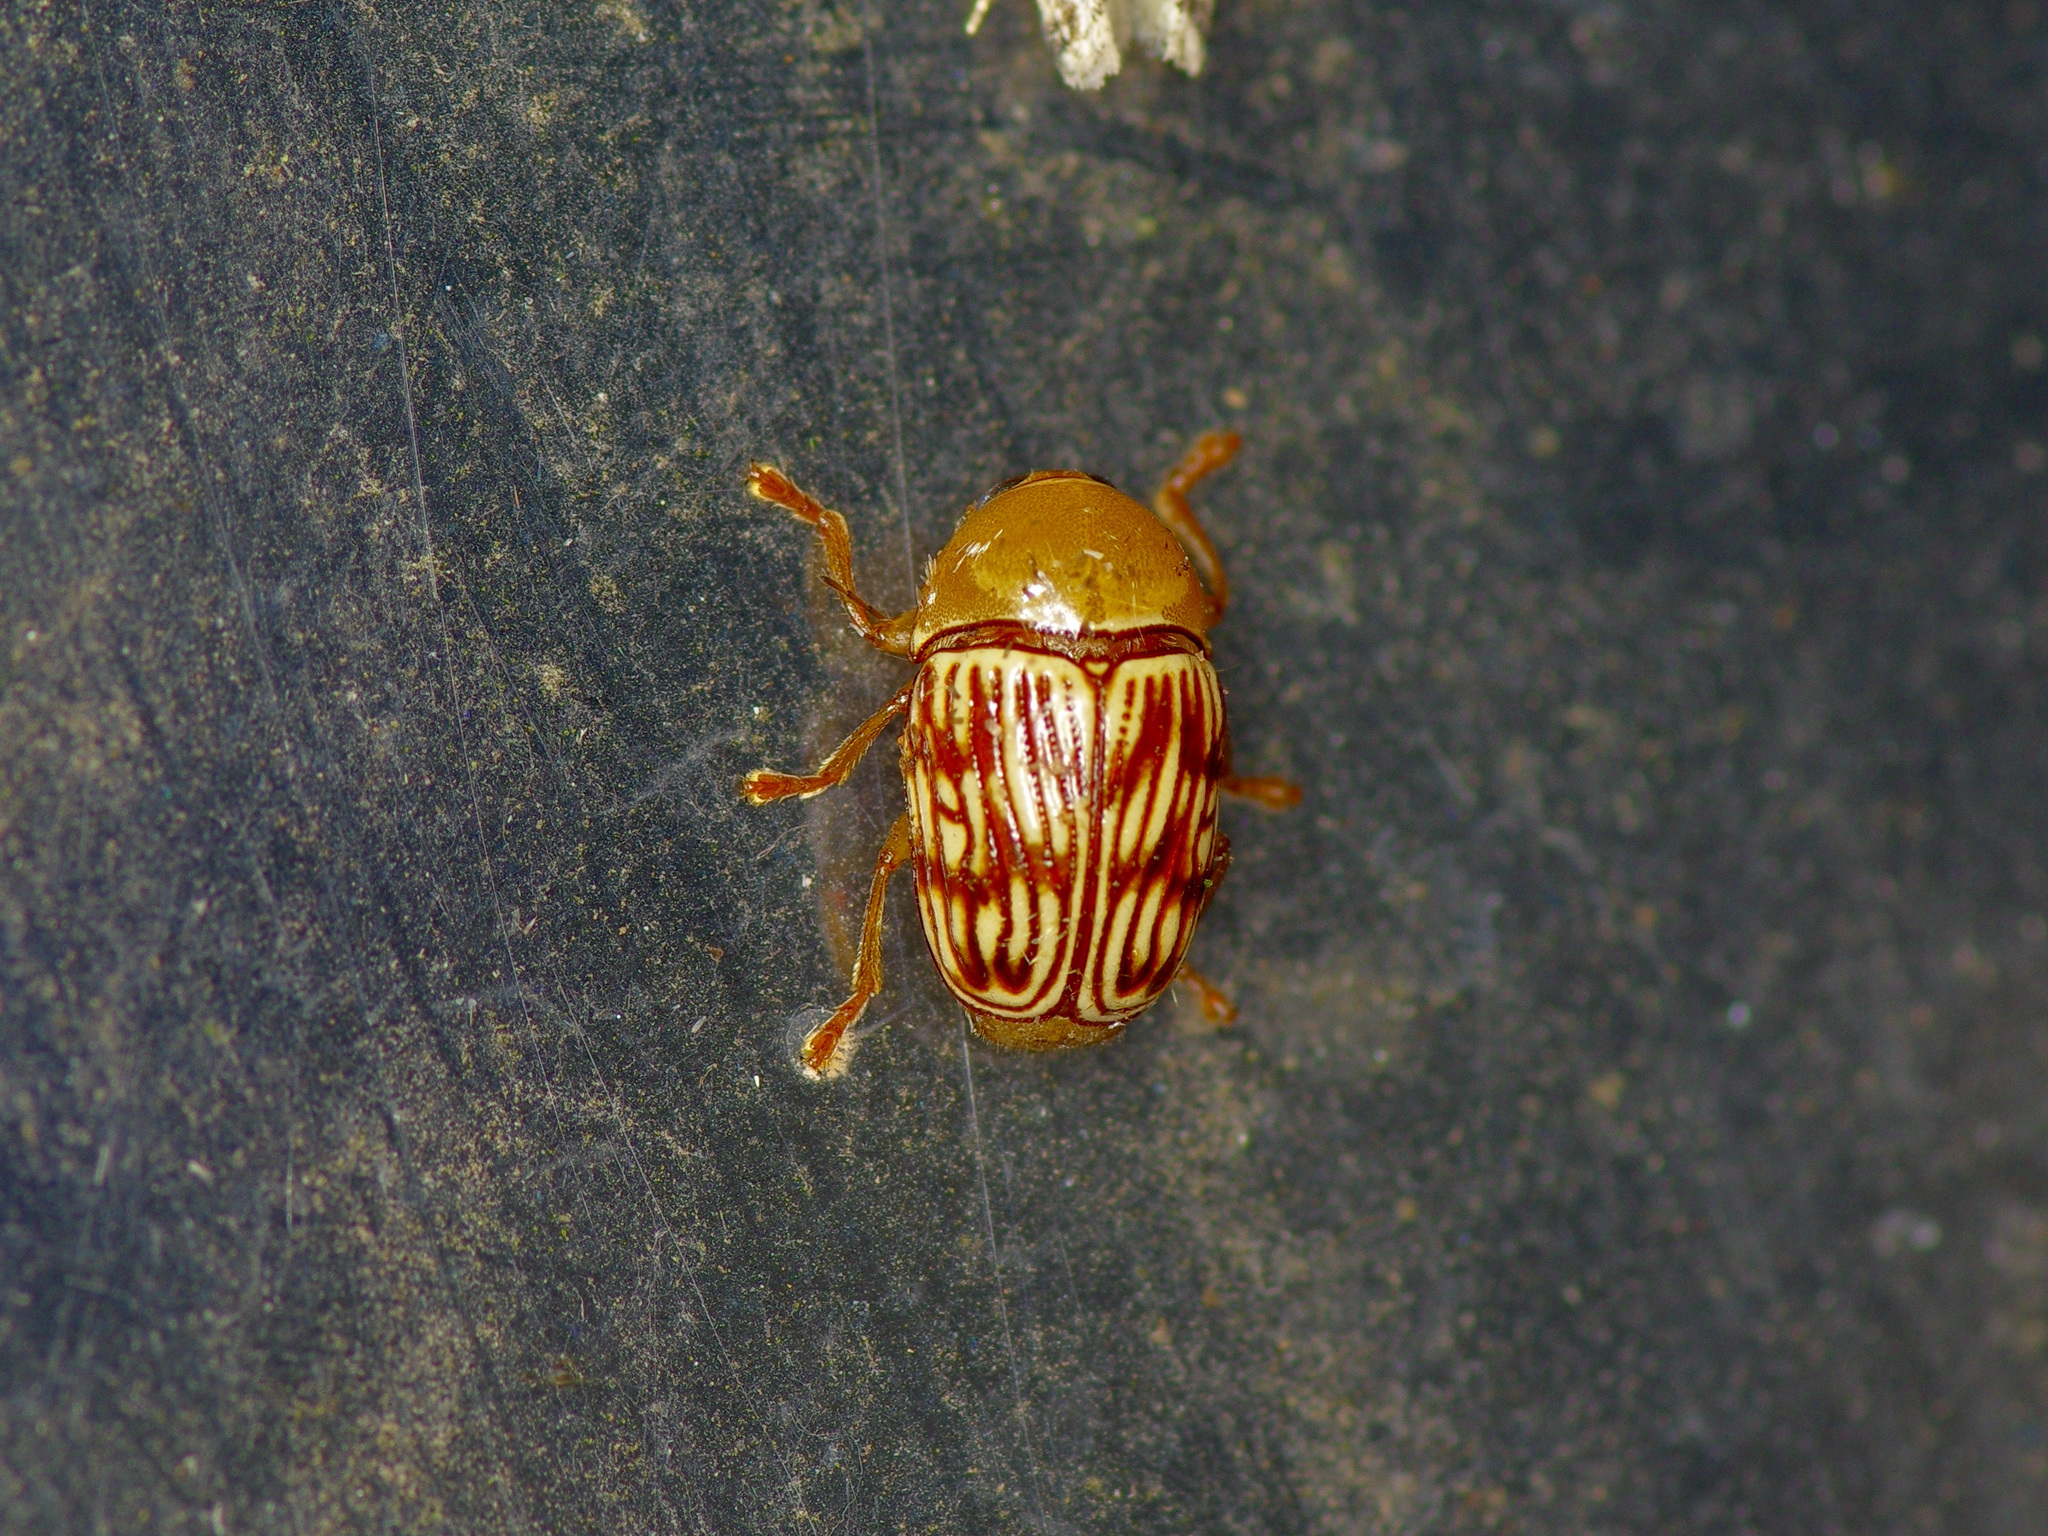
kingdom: Animalia
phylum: Arthropoda
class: Insecta
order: Coleoptera
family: Chrysomelidae
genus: Cryptocephalus
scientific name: Cryptocephalus fulguratus
